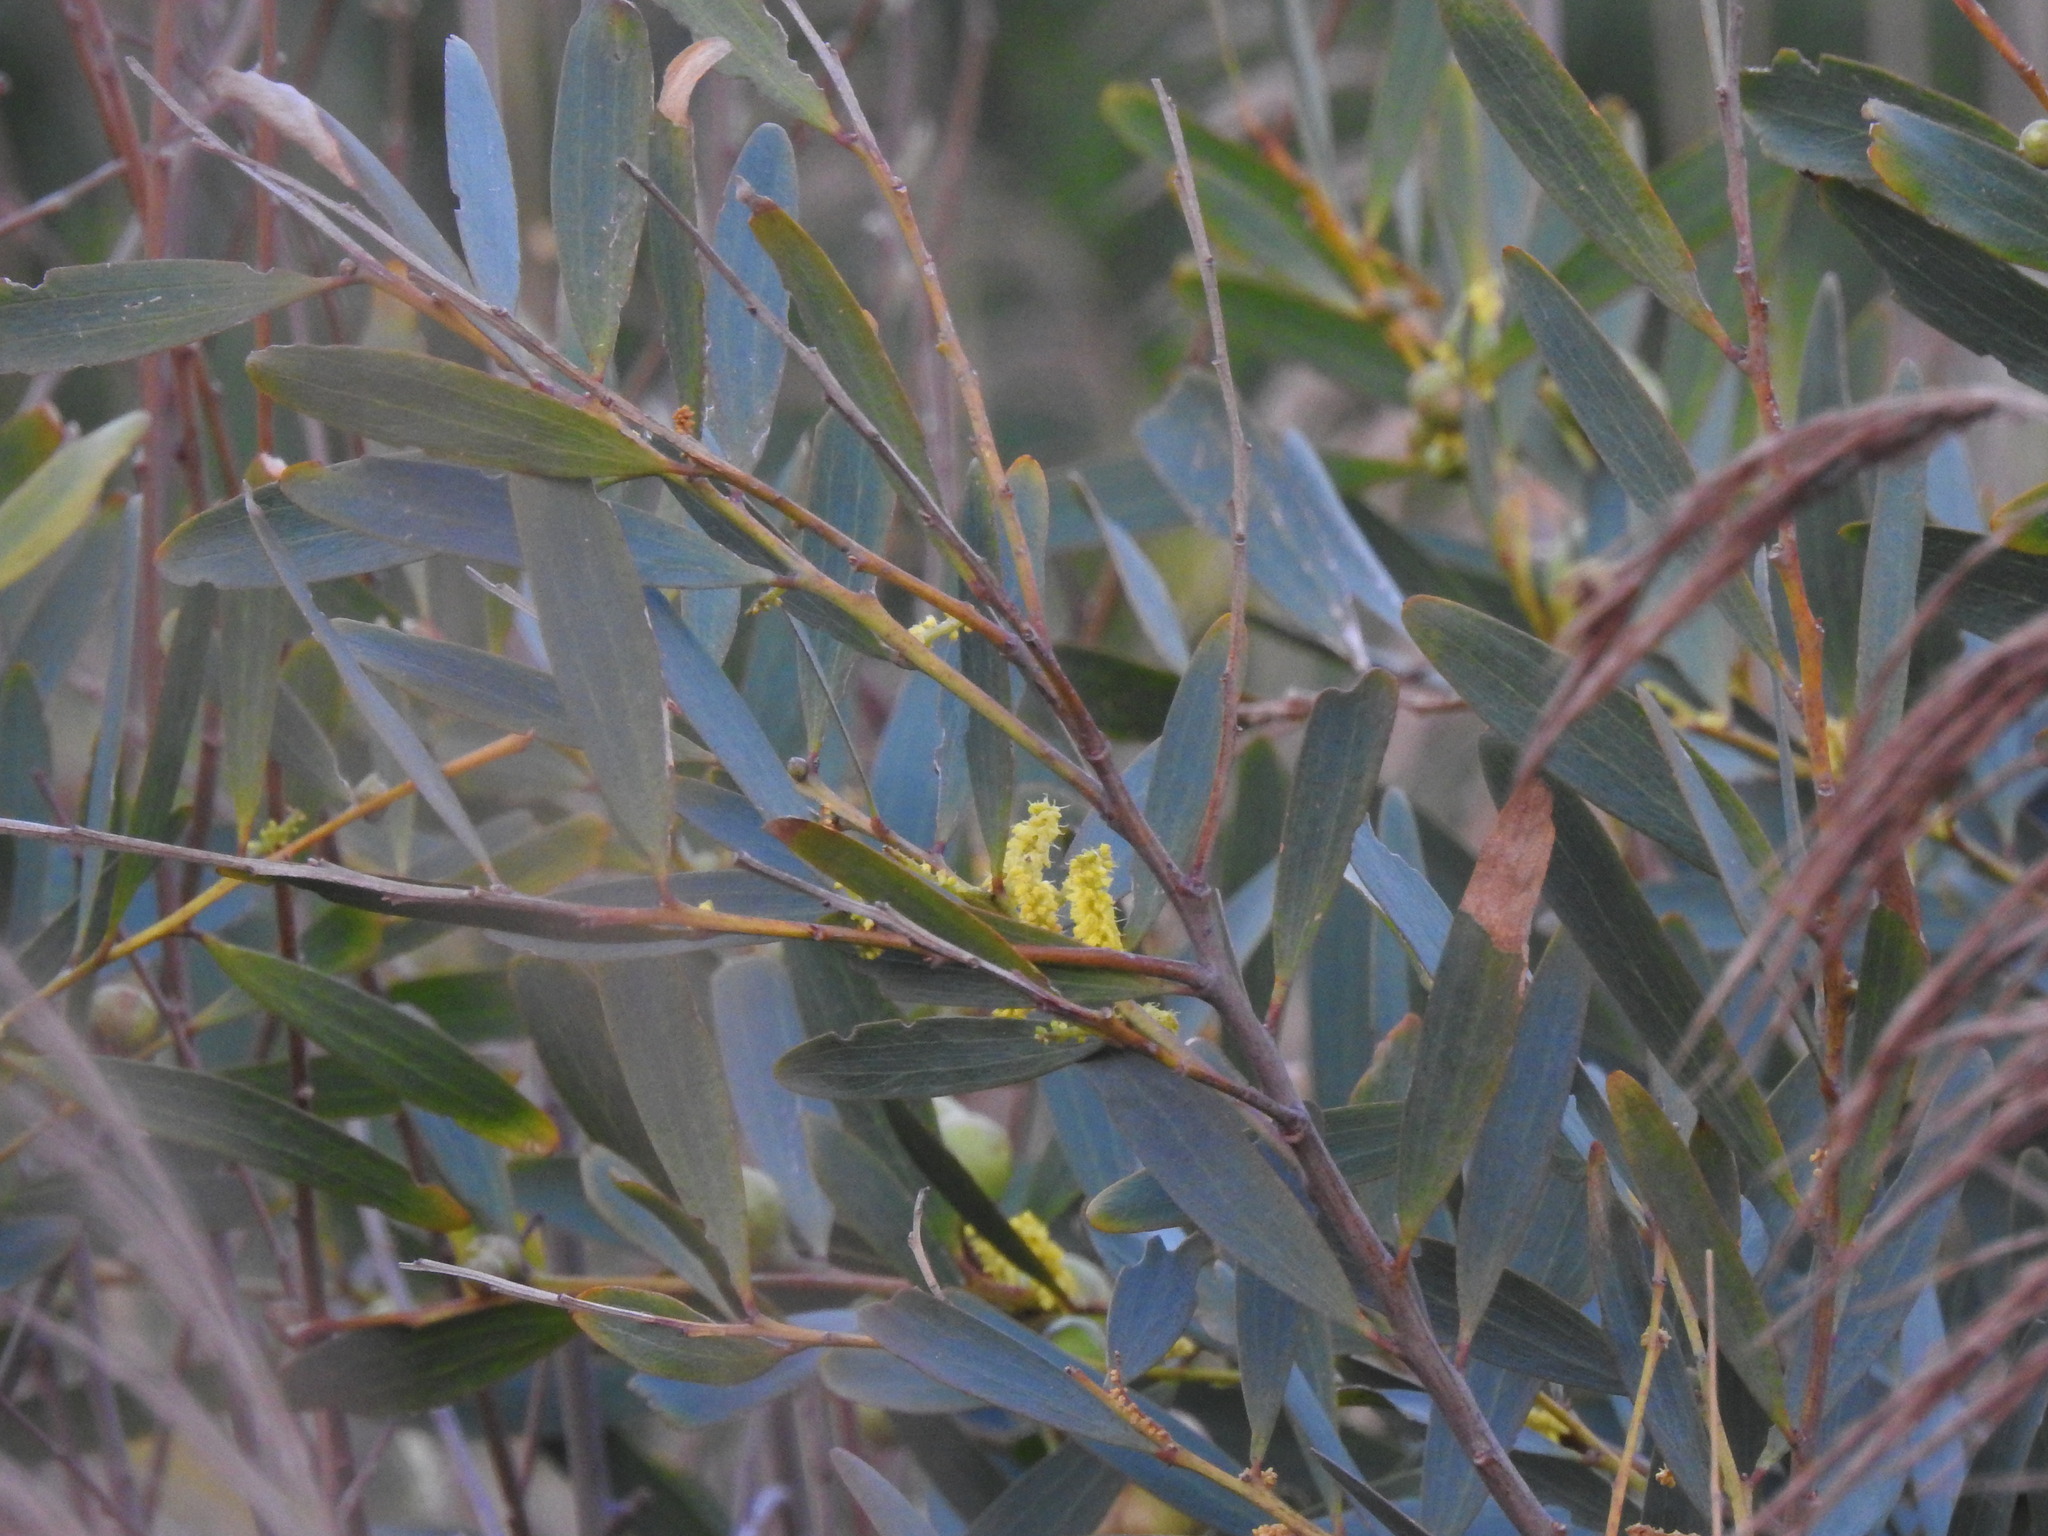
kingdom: Plantae
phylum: Tracheophyta
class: Magnoliopsida
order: Fabales
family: Fabaceae
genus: Acacia
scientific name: Acacia longifolia
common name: Sydney golden wattle
